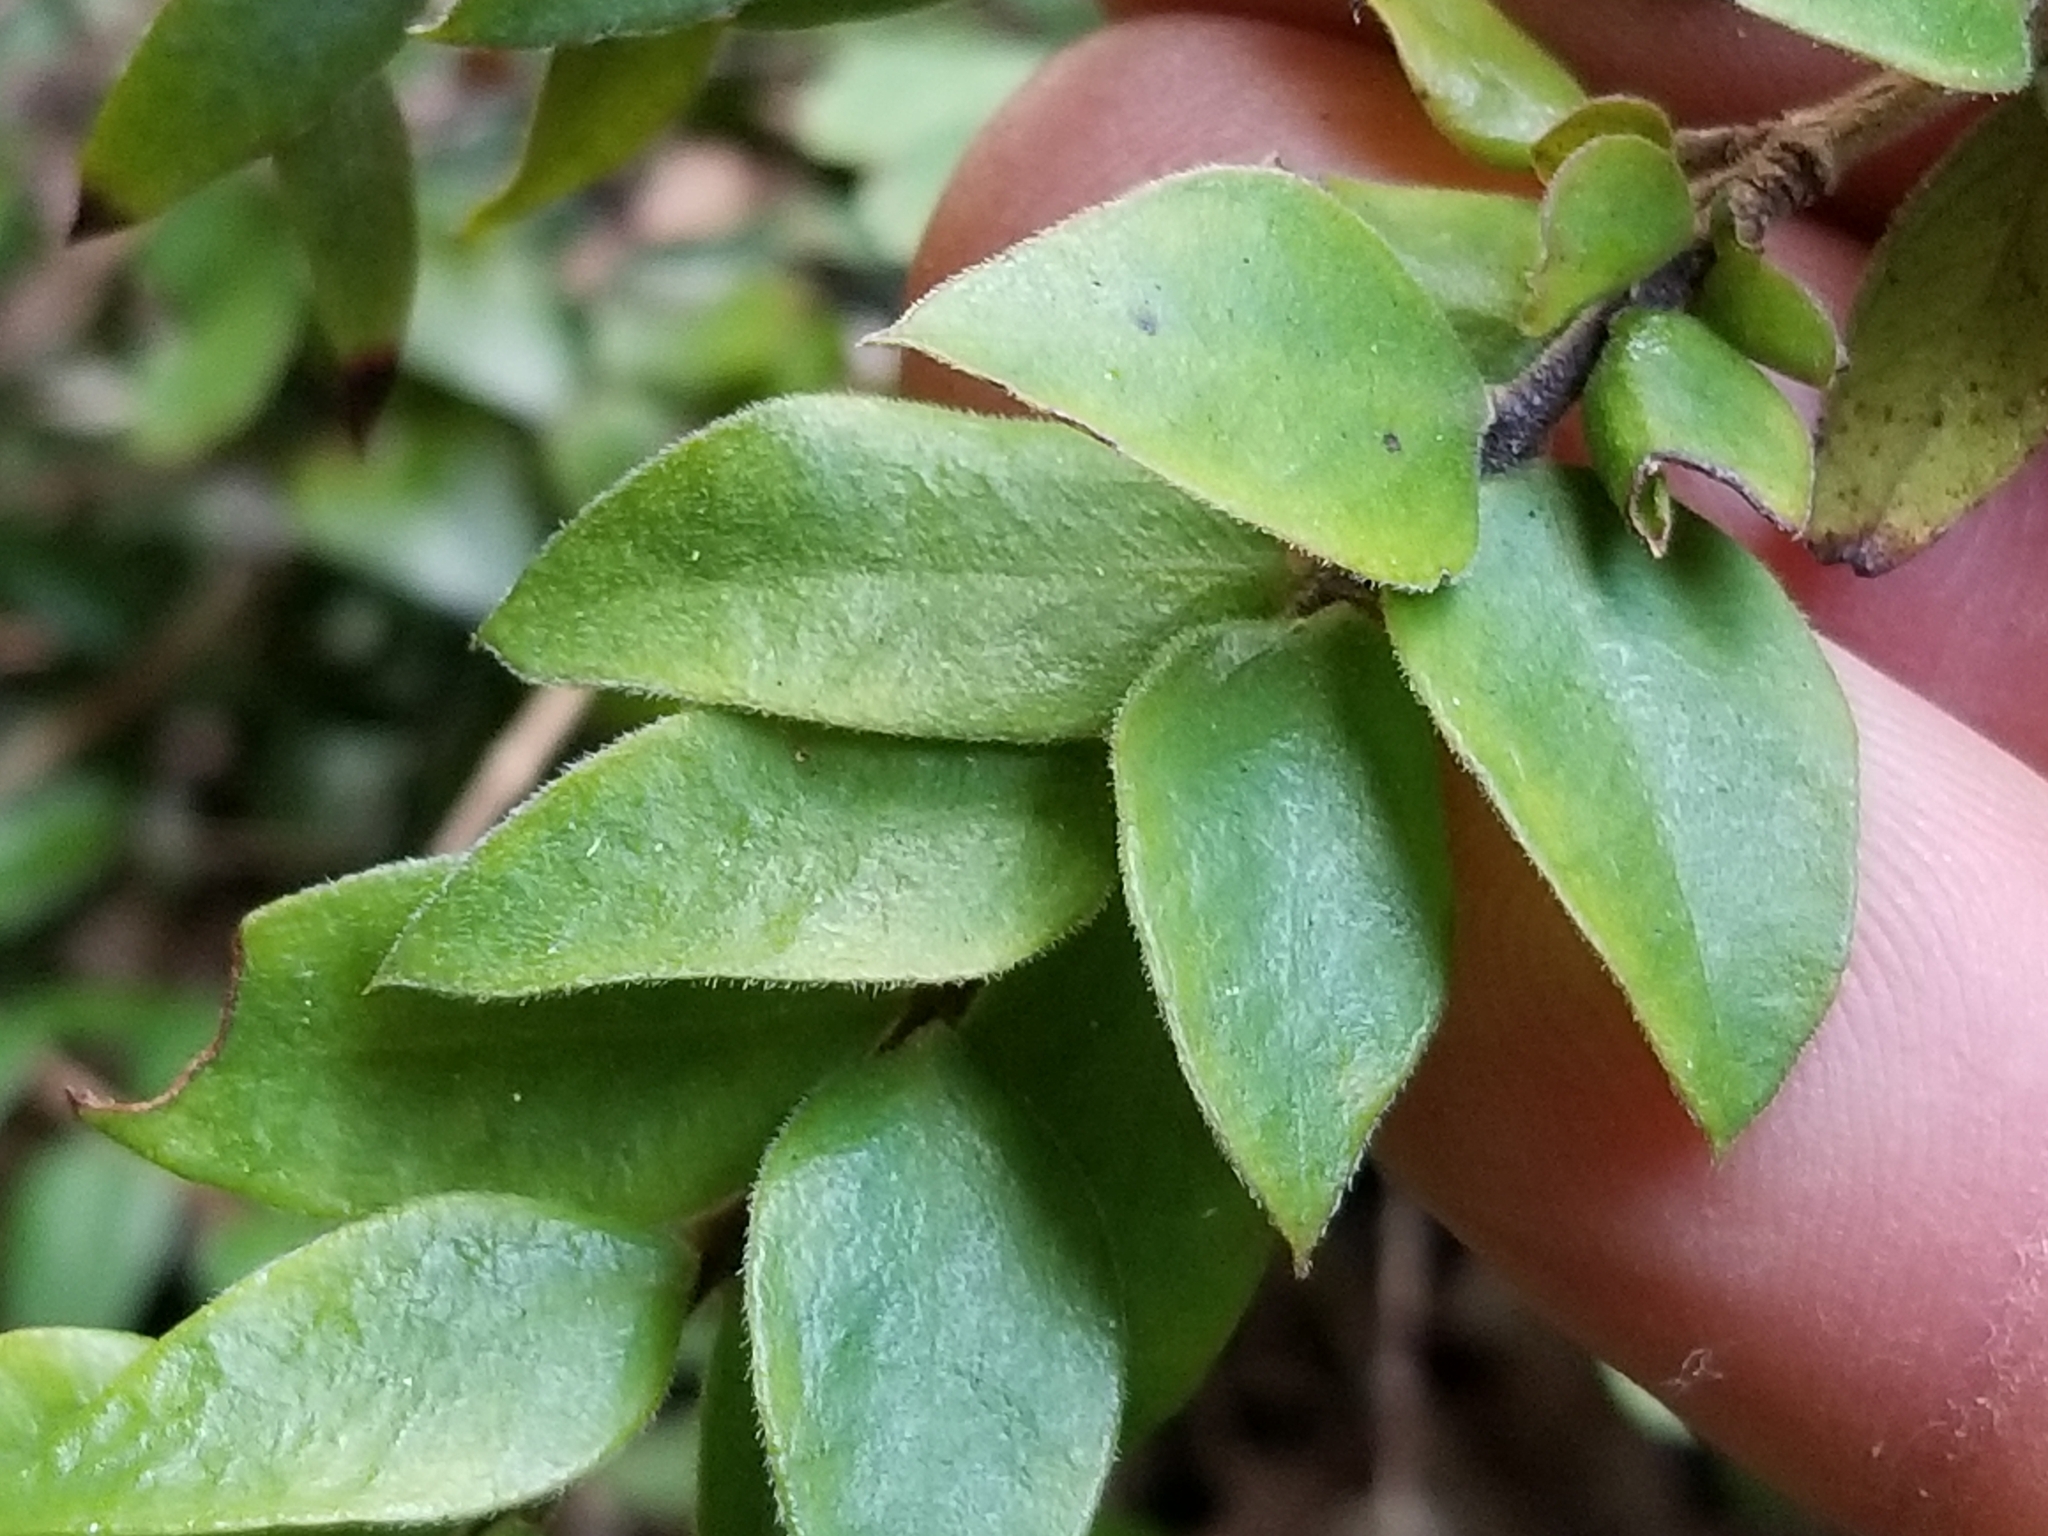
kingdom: Plantae
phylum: Tracheophyta
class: Magnoliopsida
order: Myrtales
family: Myrtaceae
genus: Metrosideros
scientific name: Metrosideros colensoi
